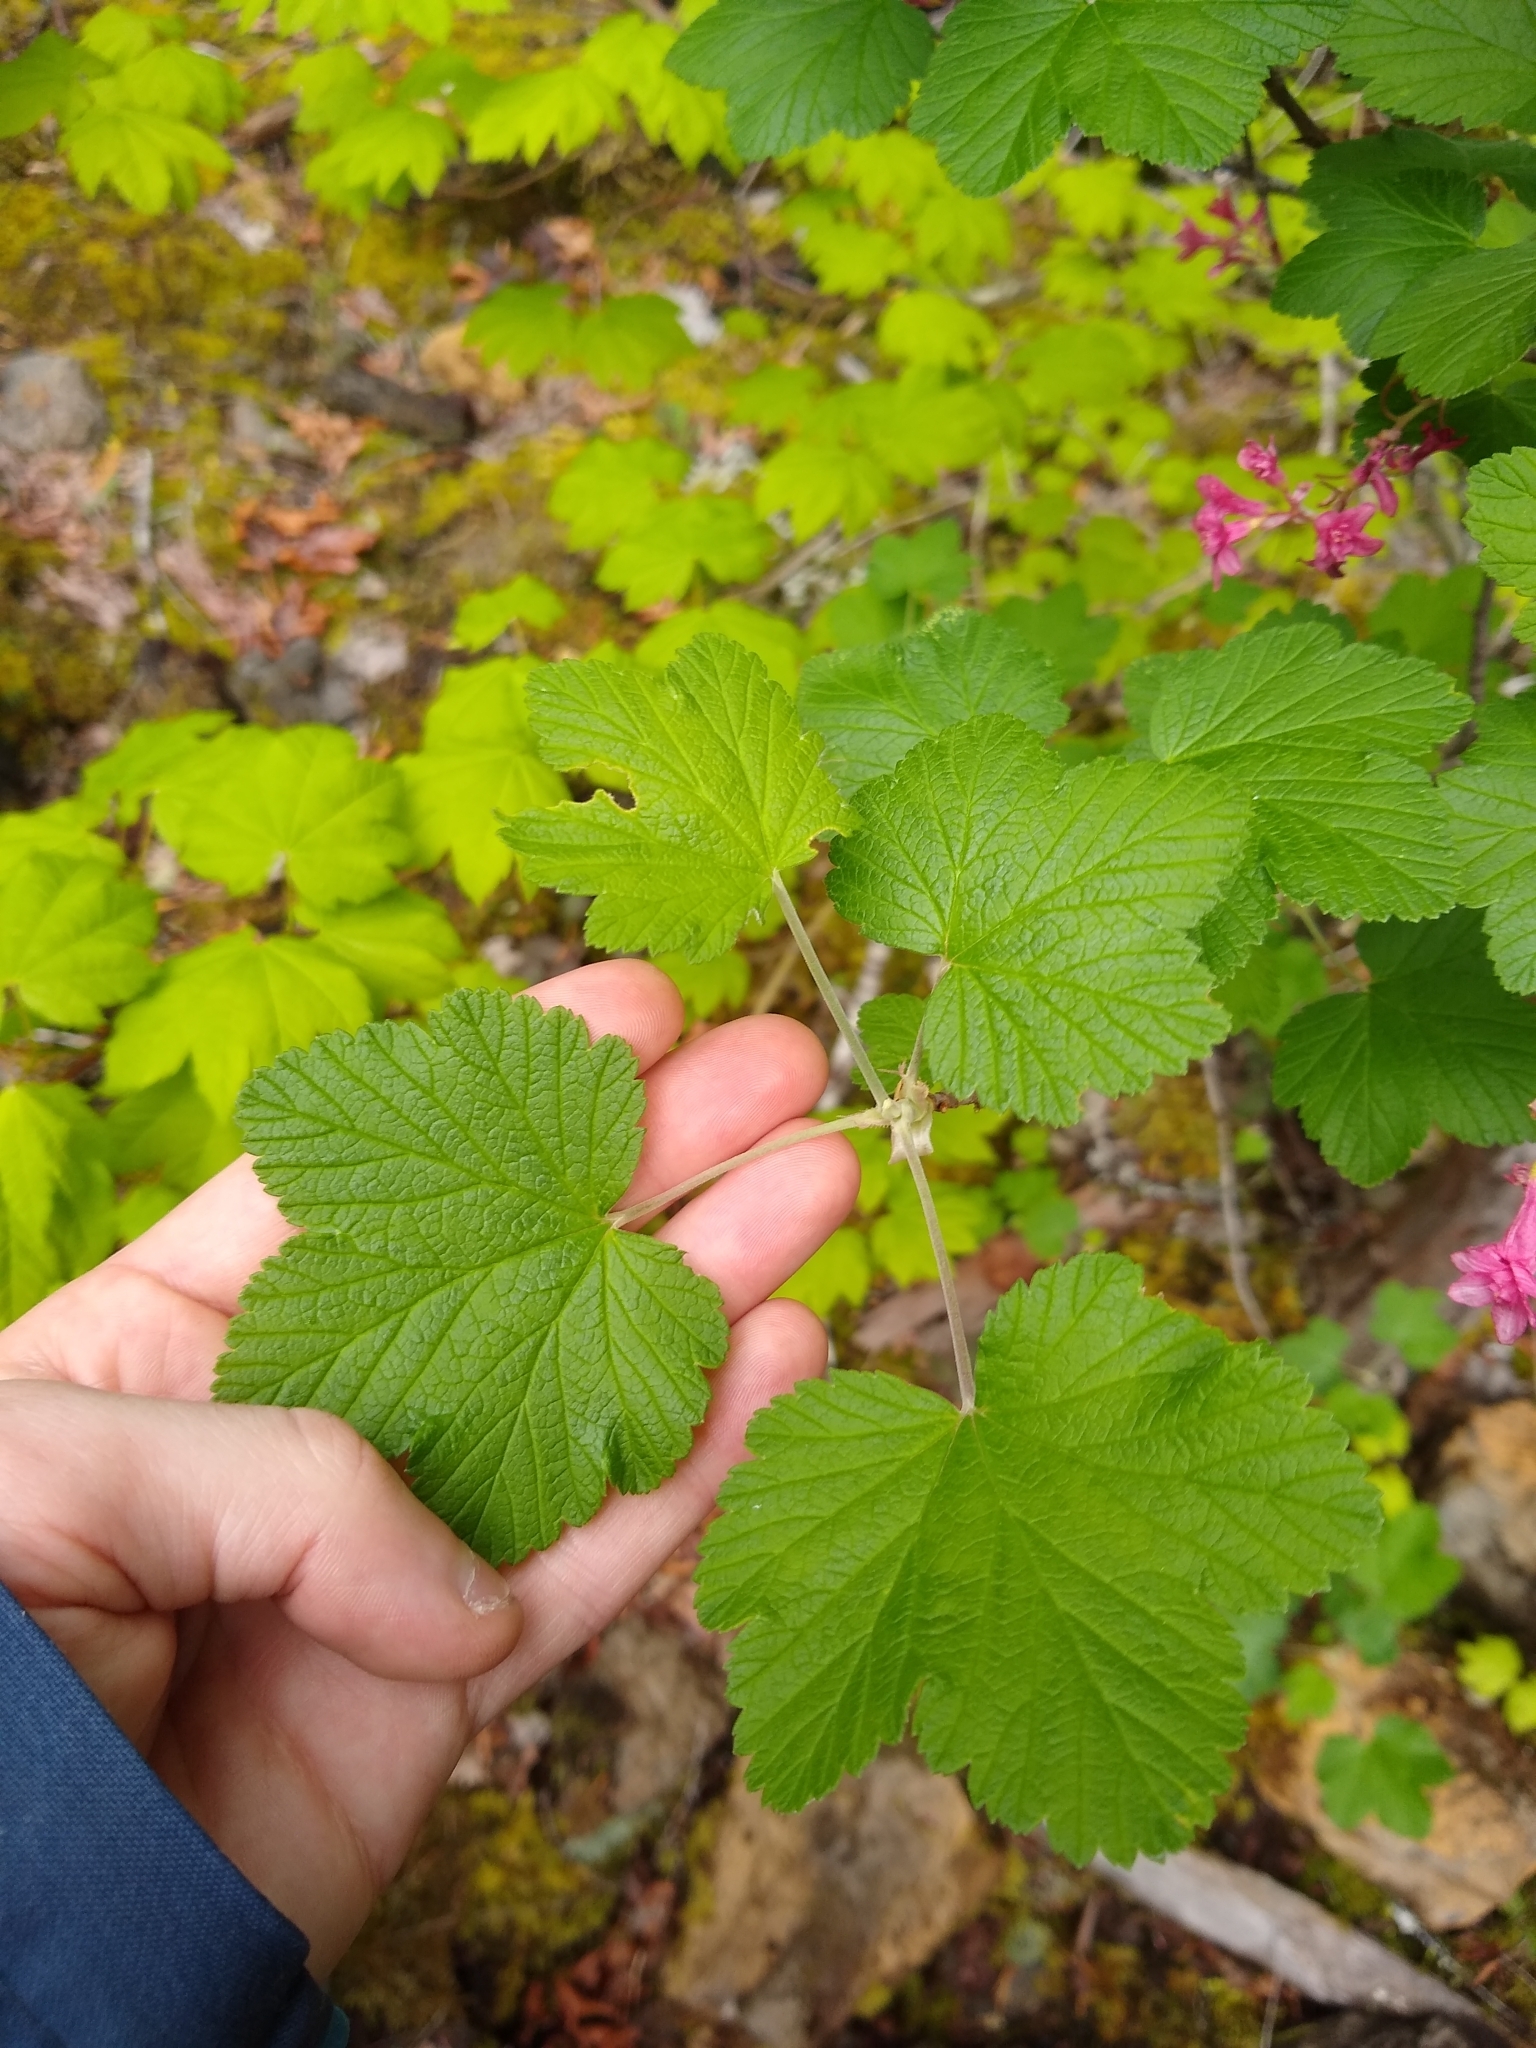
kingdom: Plantae
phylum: Tracheophyta
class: Magnoliopsida
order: Saxifragales
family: Grossulariaceae
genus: Ribes
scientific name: Ribes sanguineum
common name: Flowering currant
